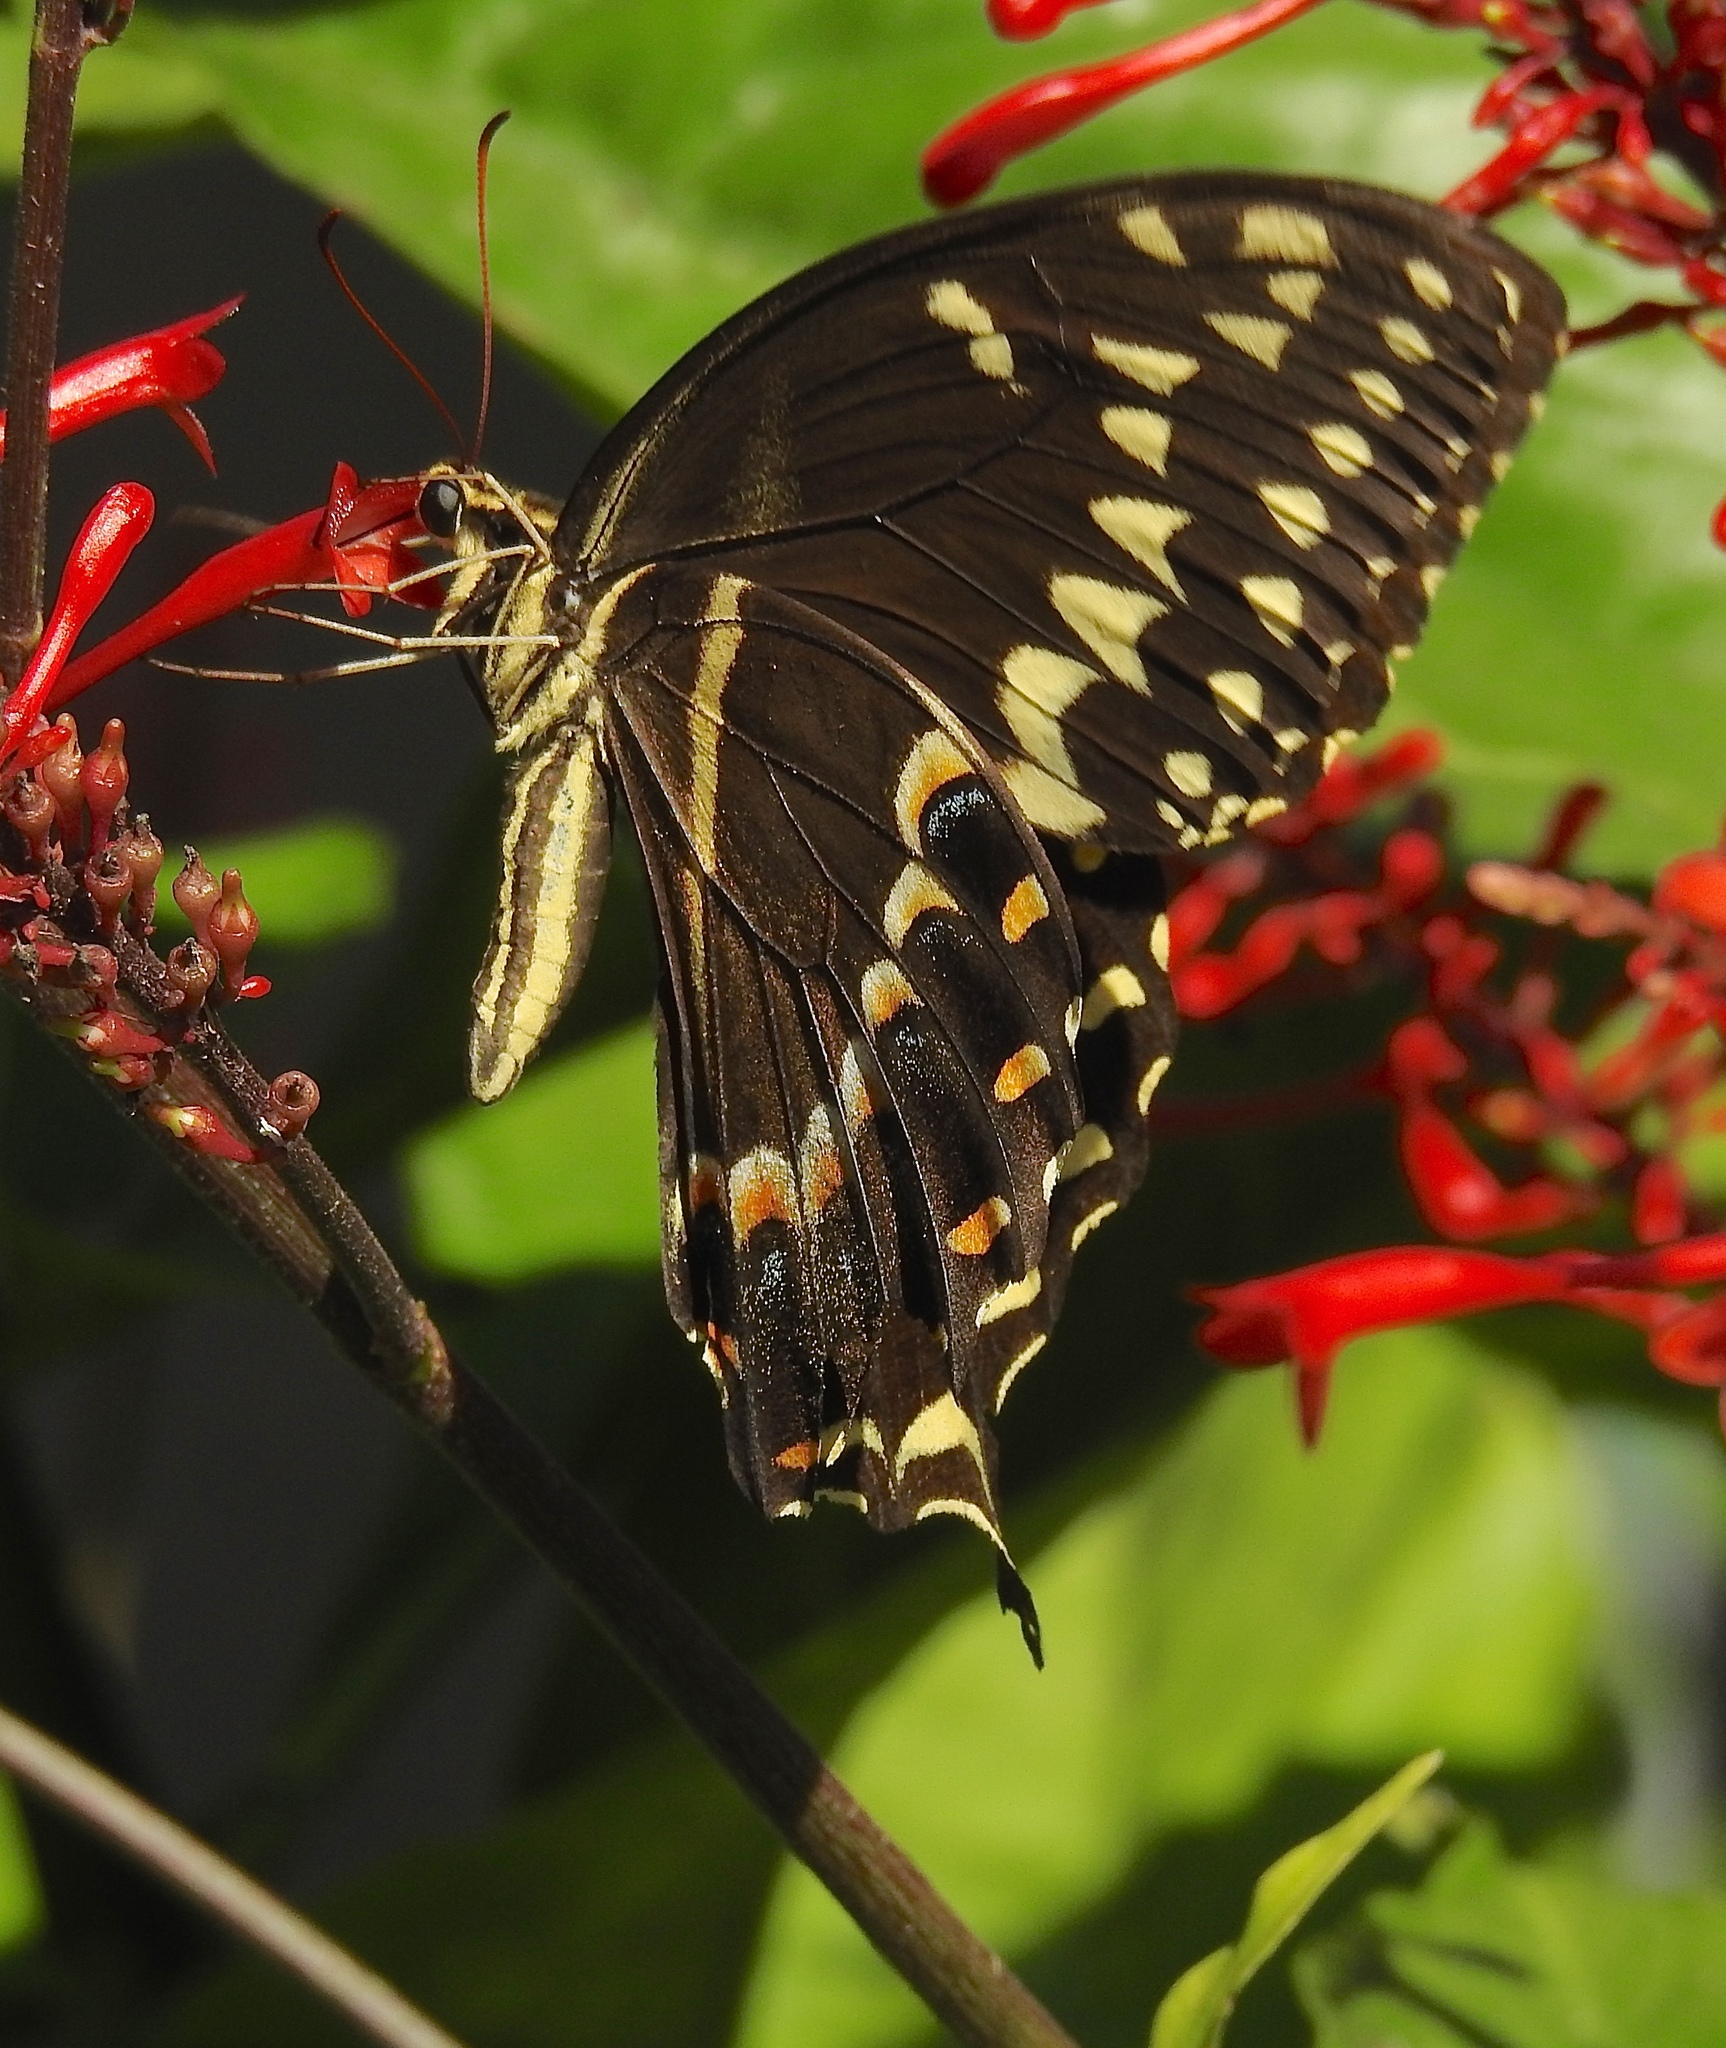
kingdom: Animalia
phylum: Arthropoda
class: Insecta
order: Lepidoptera
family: Papilionidae
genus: Papilio
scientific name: Papilio palamedes
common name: Palamedes swallowtail
